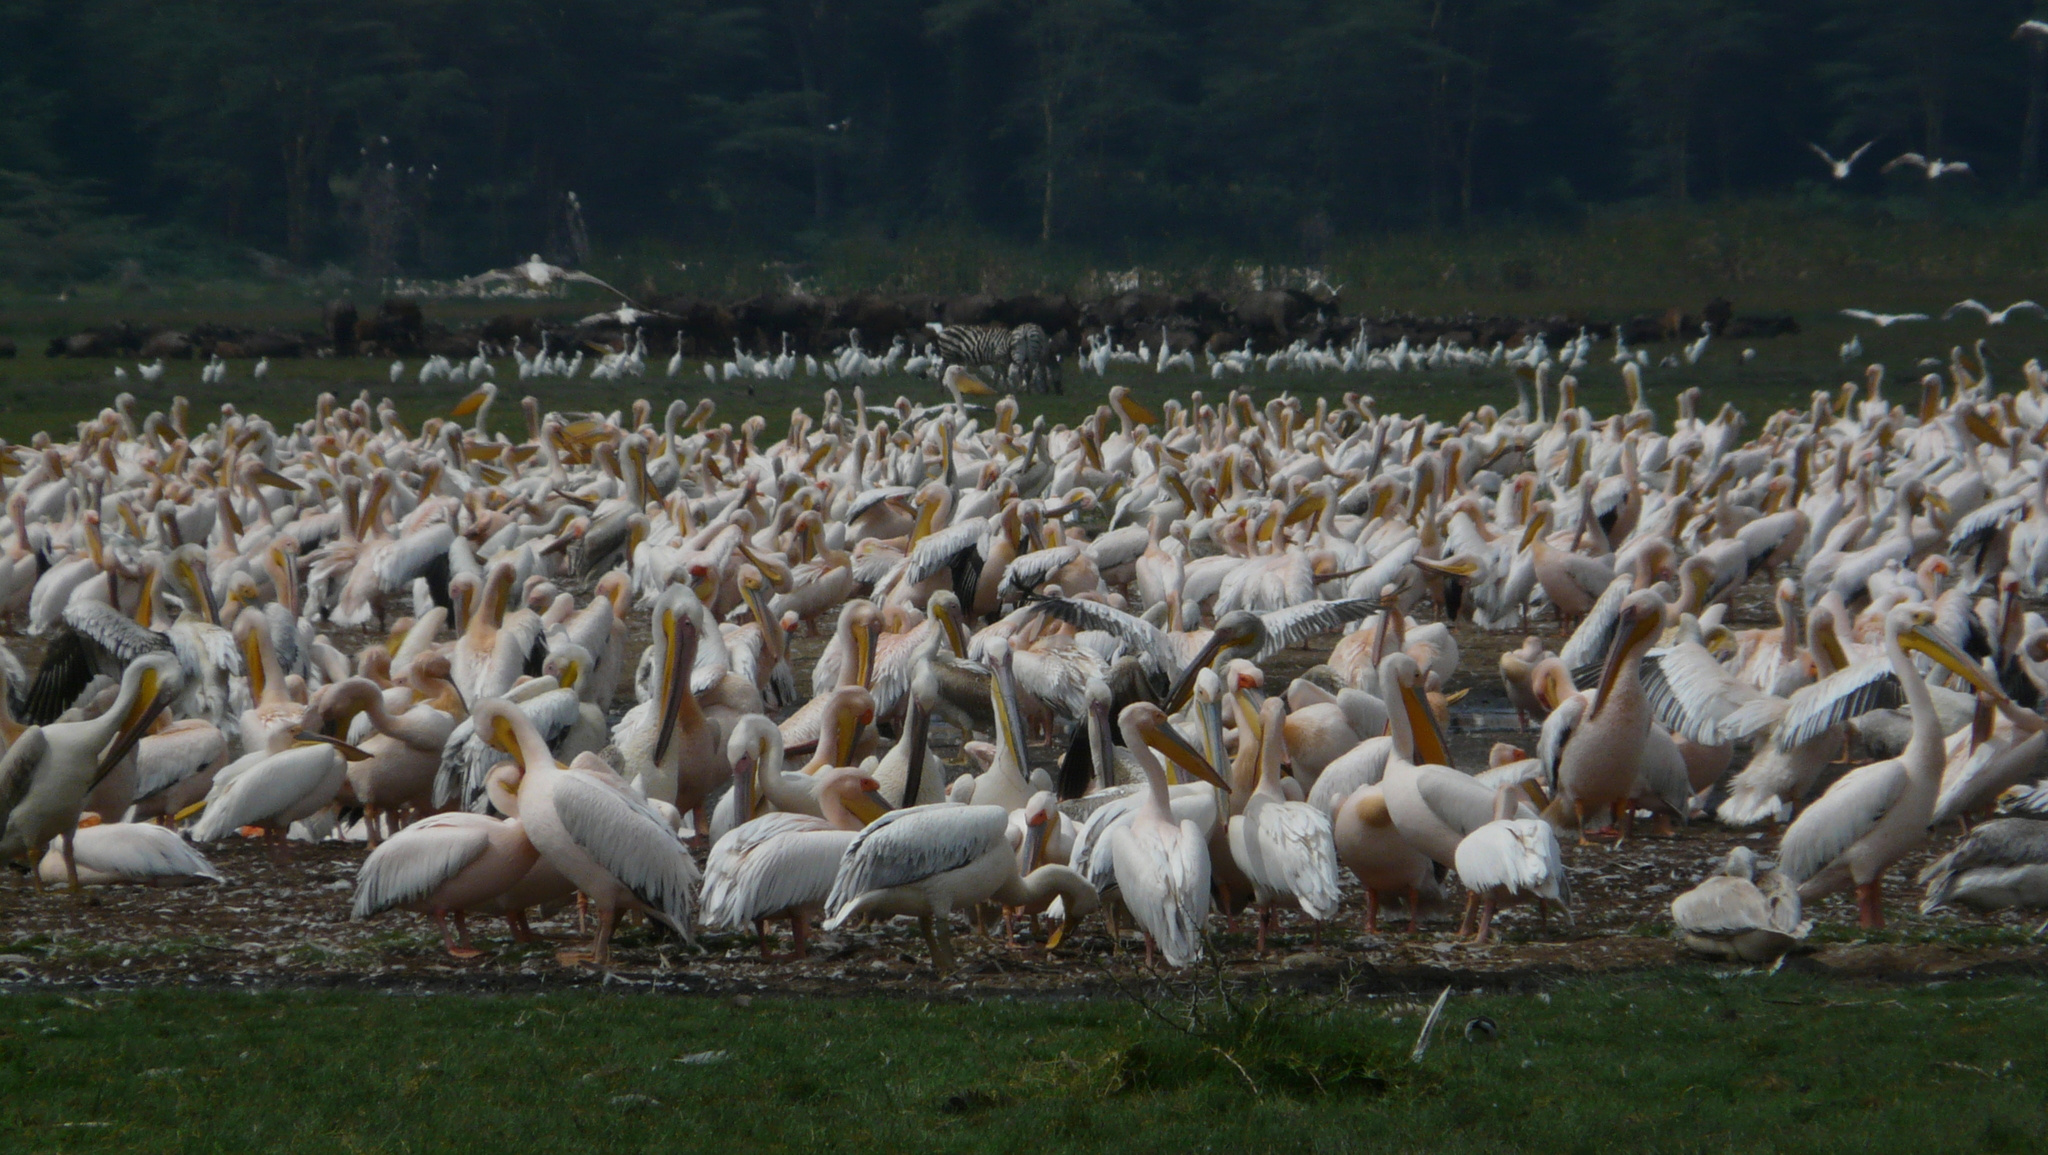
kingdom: Animalia
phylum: Chordata
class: Aves
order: Pelecaniformes
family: Pelecanidae
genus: Pelecanus
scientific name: Pelecanus onocrotalus
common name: Great white pelican
